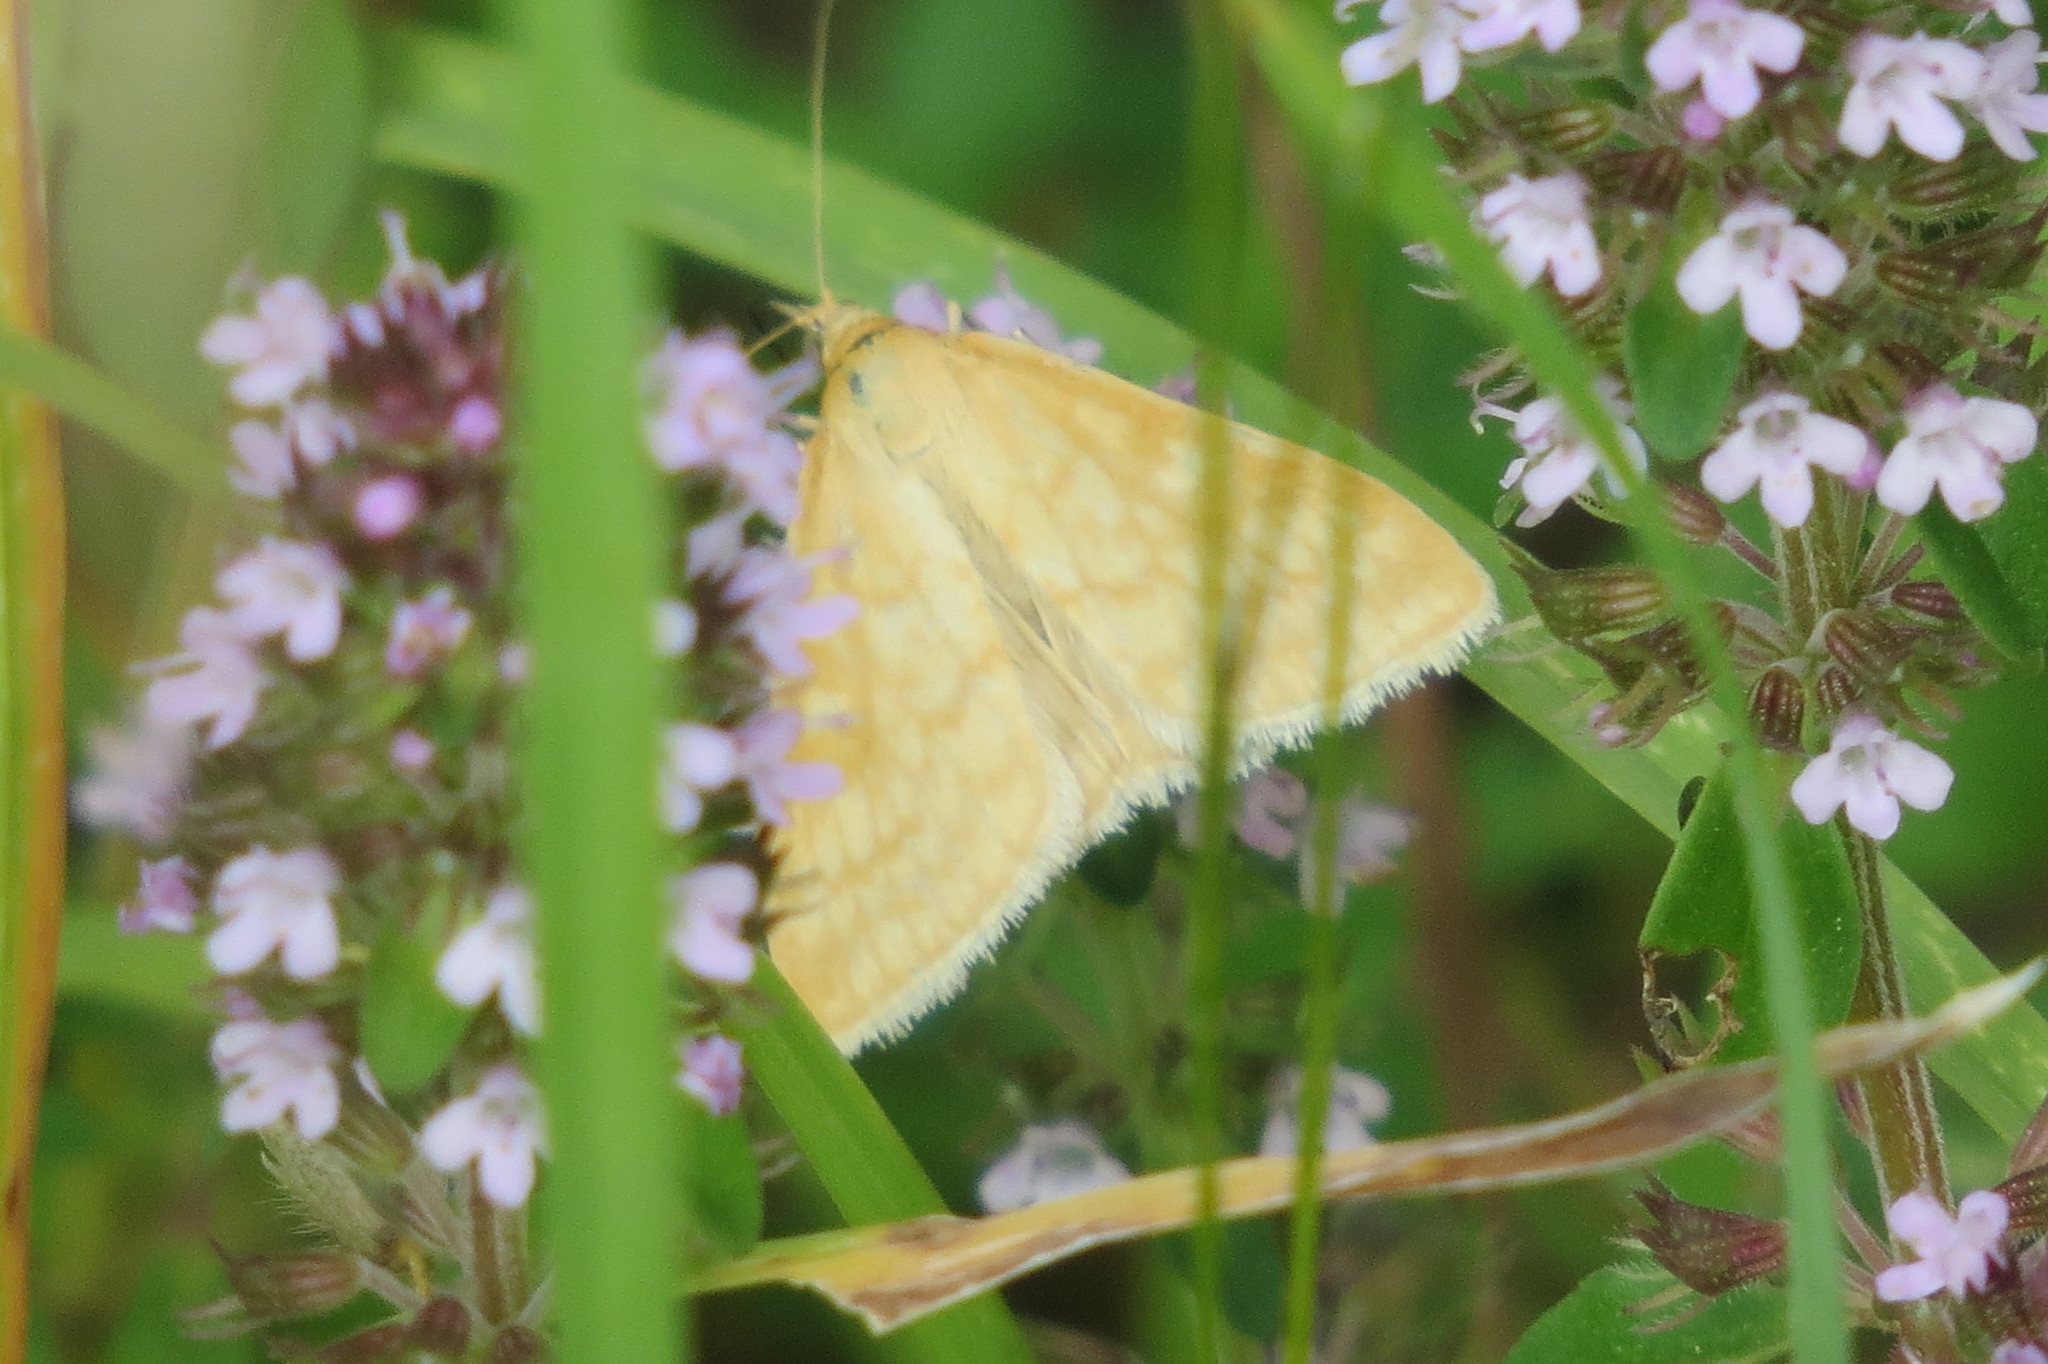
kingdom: Animalia
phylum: Arthropoda
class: Insecta
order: Lepidoptera
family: Crambidae
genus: Sitochroa
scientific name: Sitochroa verticalis
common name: Lesser pearl
